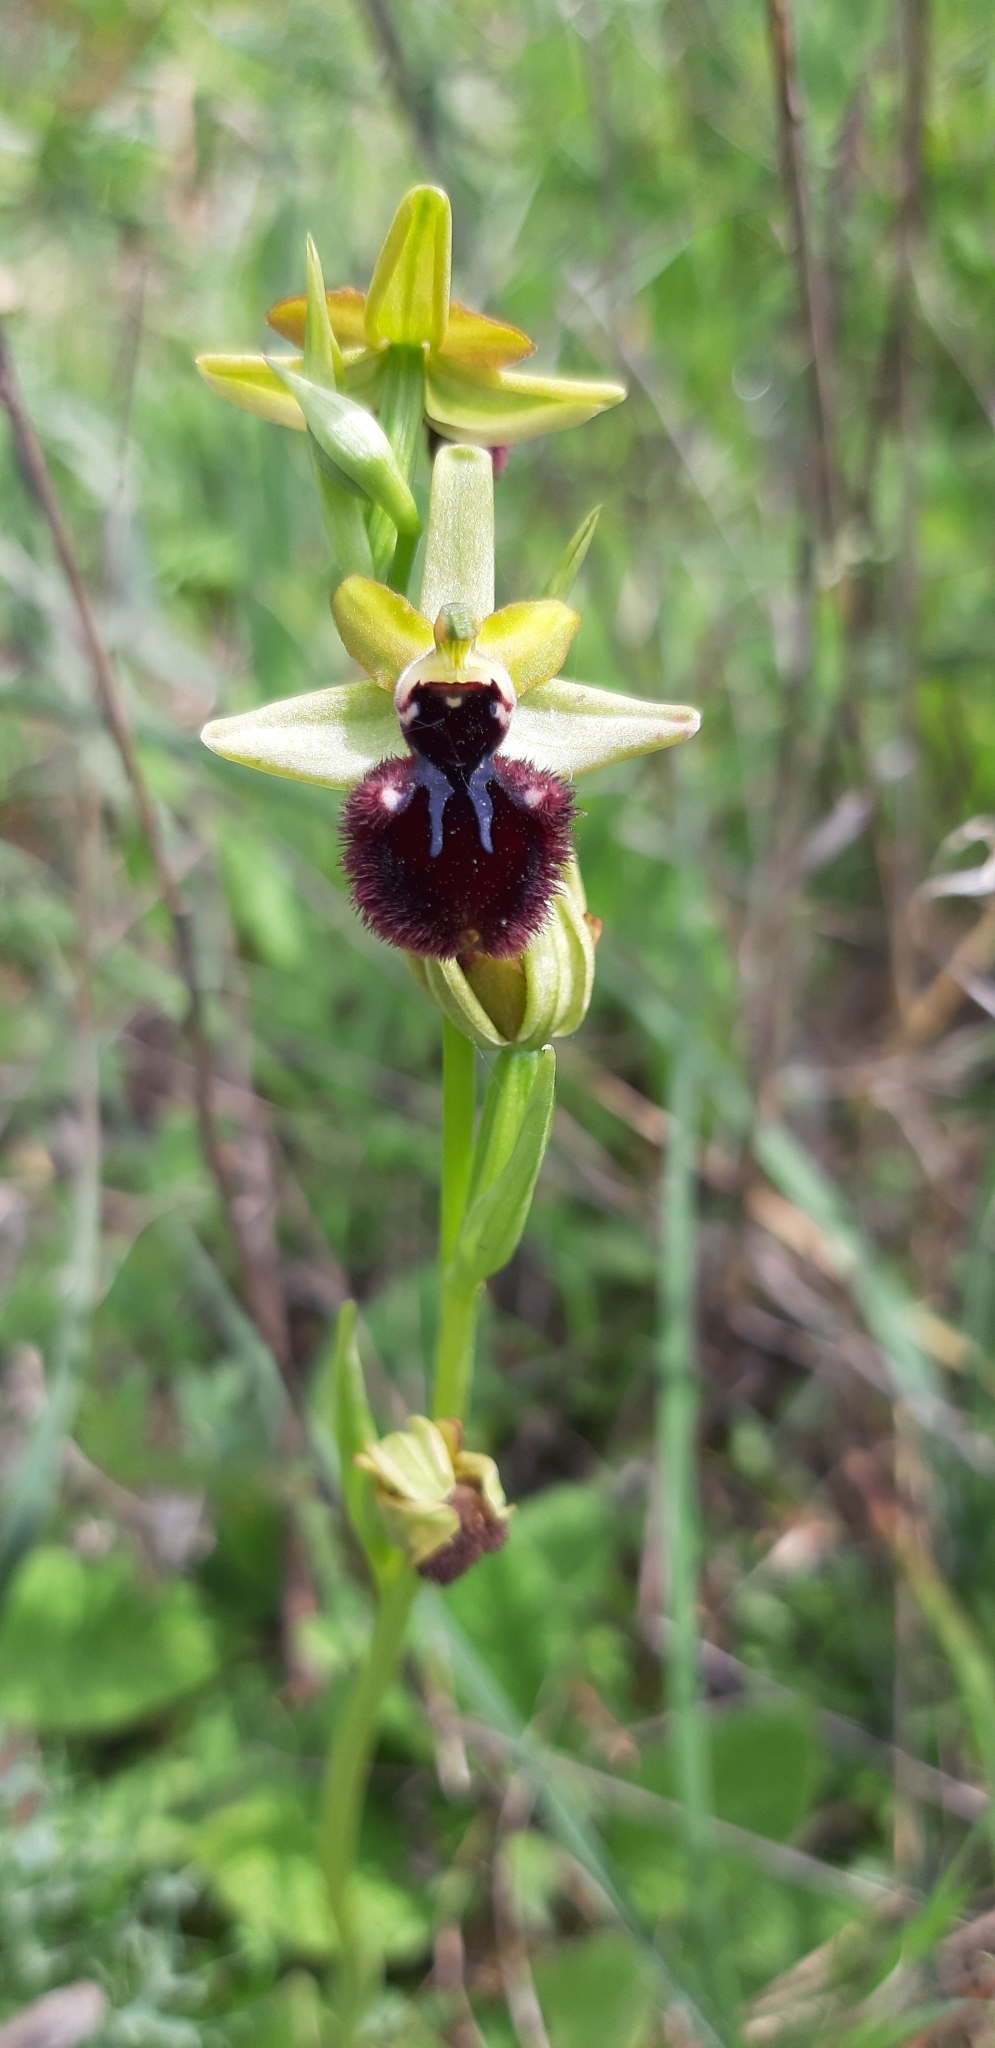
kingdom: Plantae
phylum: Tracheophyta
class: Liliopsida
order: Asparagales
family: Orchidaceae
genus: Ophrys
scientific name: Ophrys sphegodes
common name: Early spider-orchid
